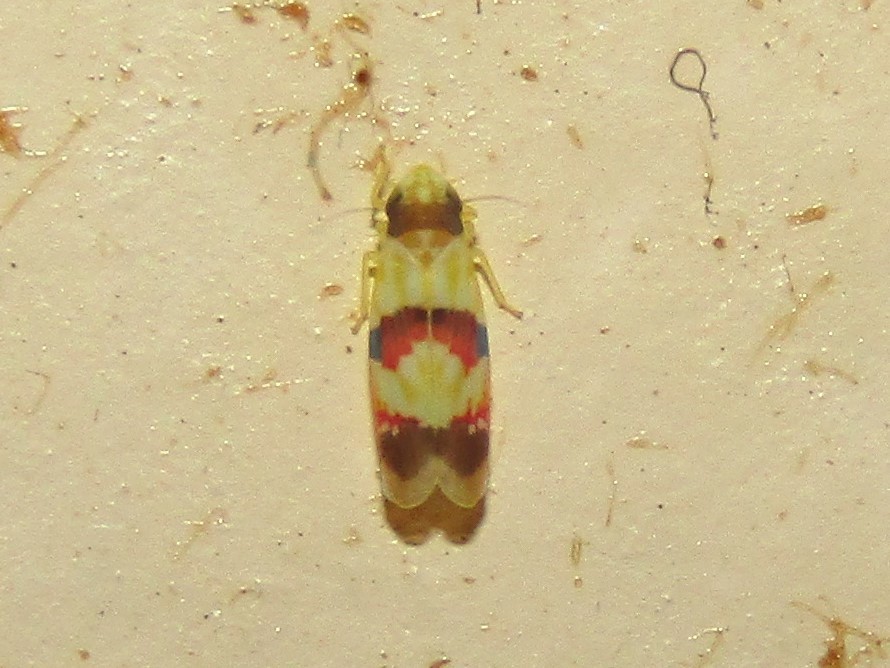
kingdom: Animalia
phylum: Arthropoda
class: Insecta
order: Hemiptera
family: Cicadellidae
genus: Erythroneura
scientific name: Erythroneura integra
